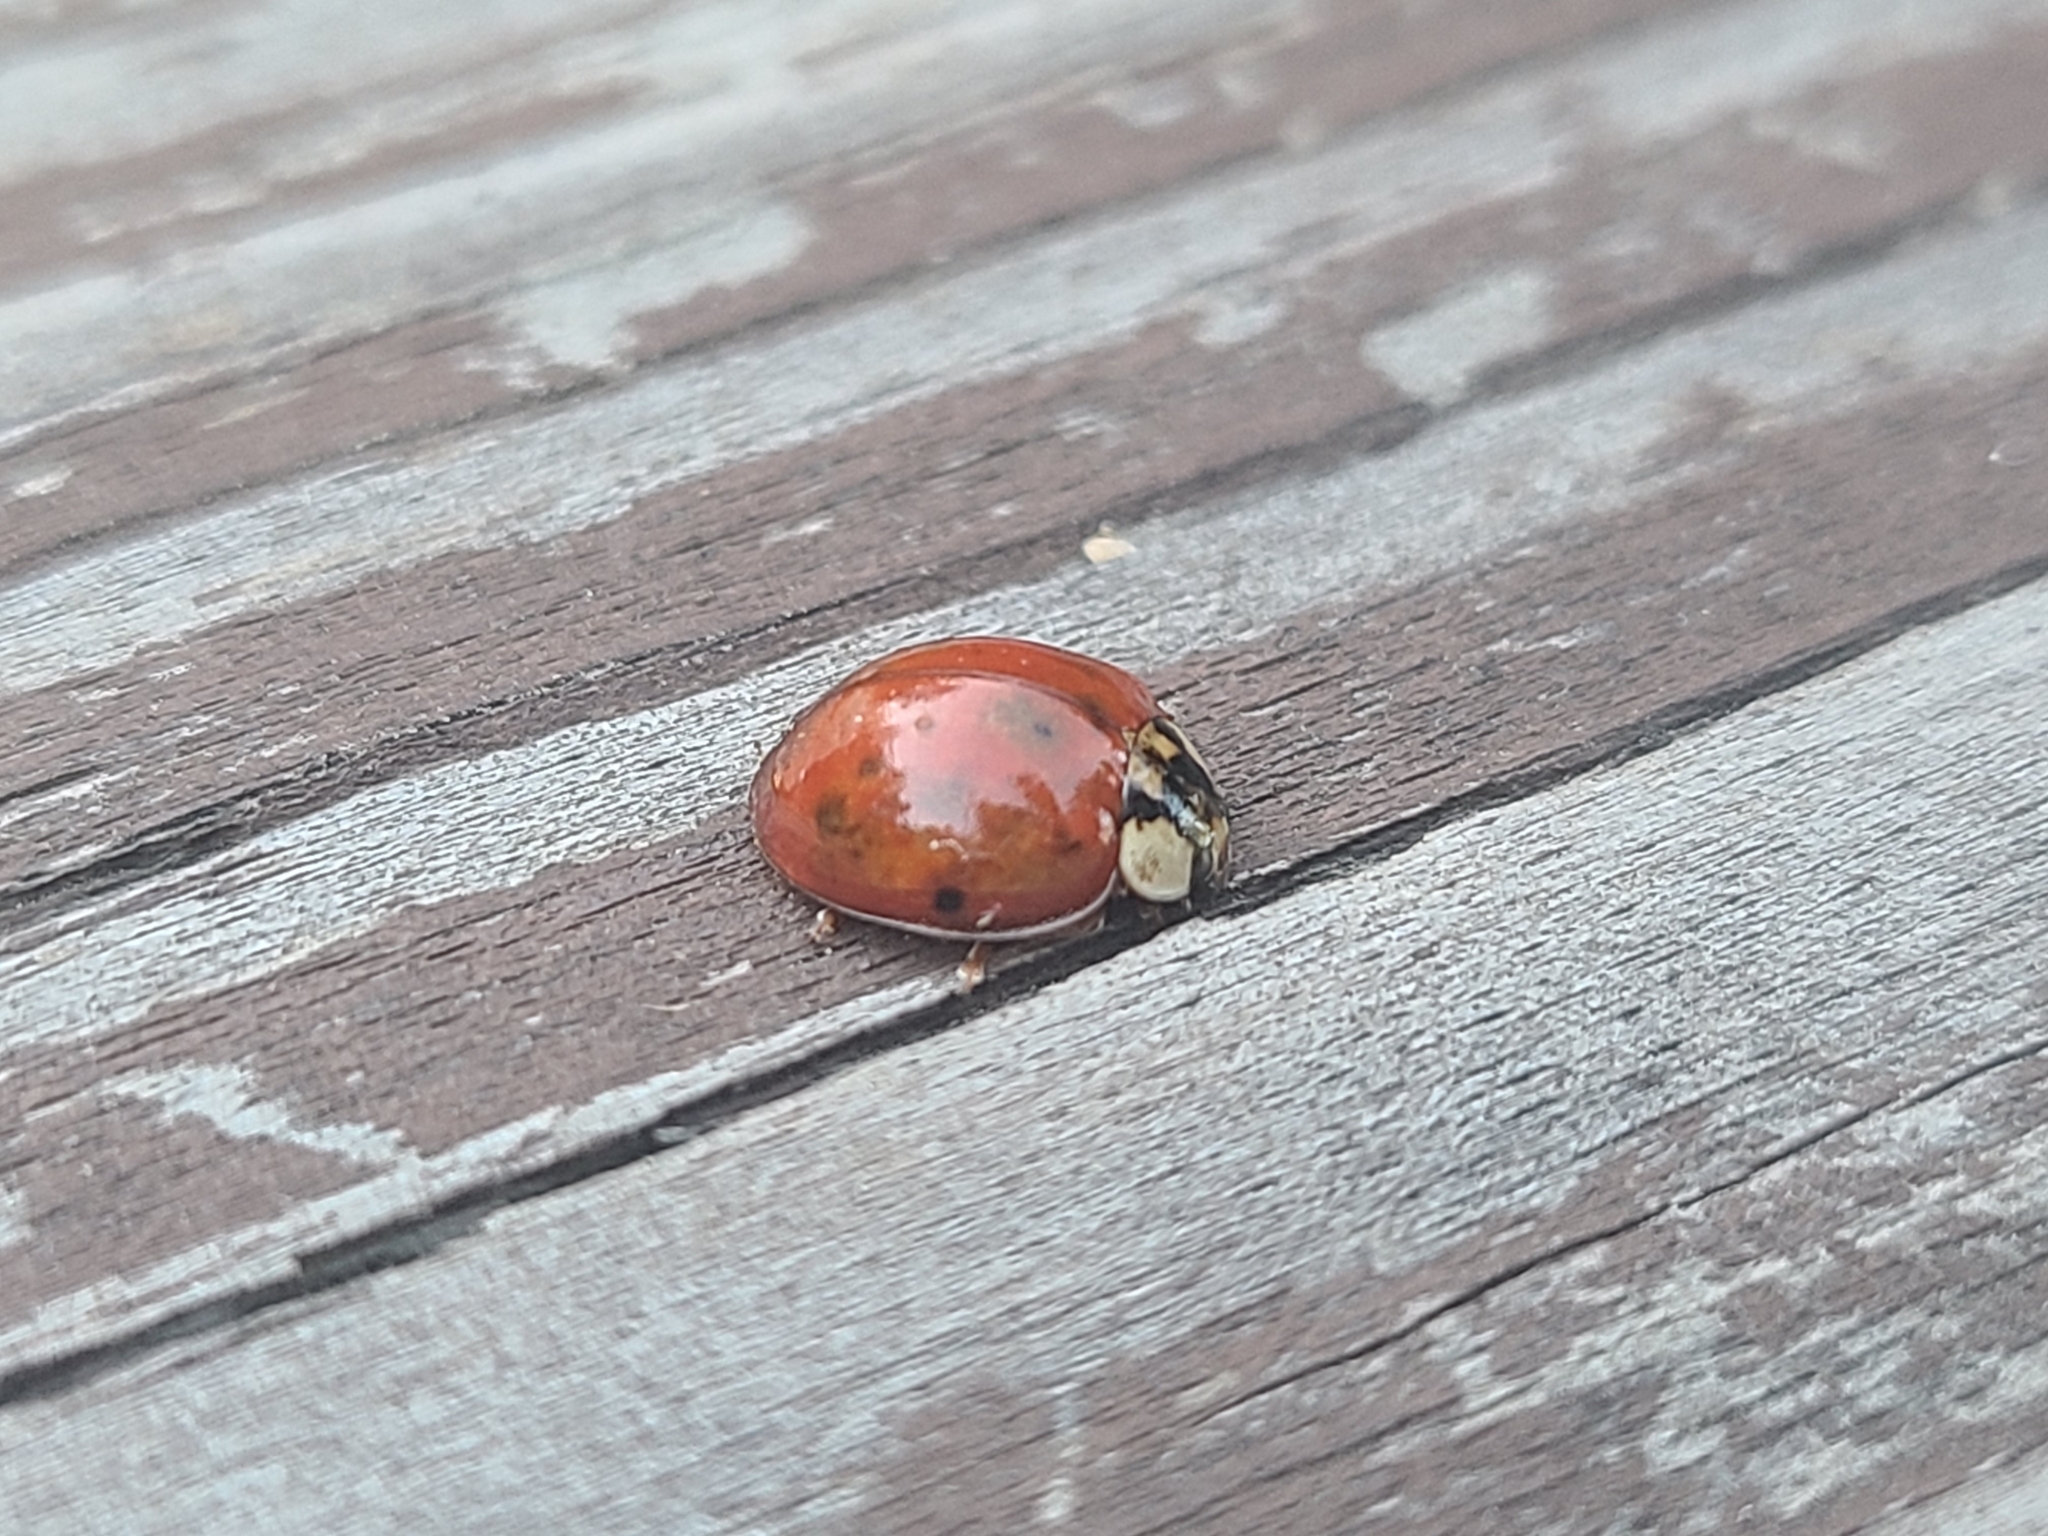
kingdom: Animalia
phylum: Arthropoda
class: Insecta
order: Coleoptera
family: Coccinellidae
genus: Harmonia
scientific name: Harmonia axyridis
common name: Harlequin ladybird
